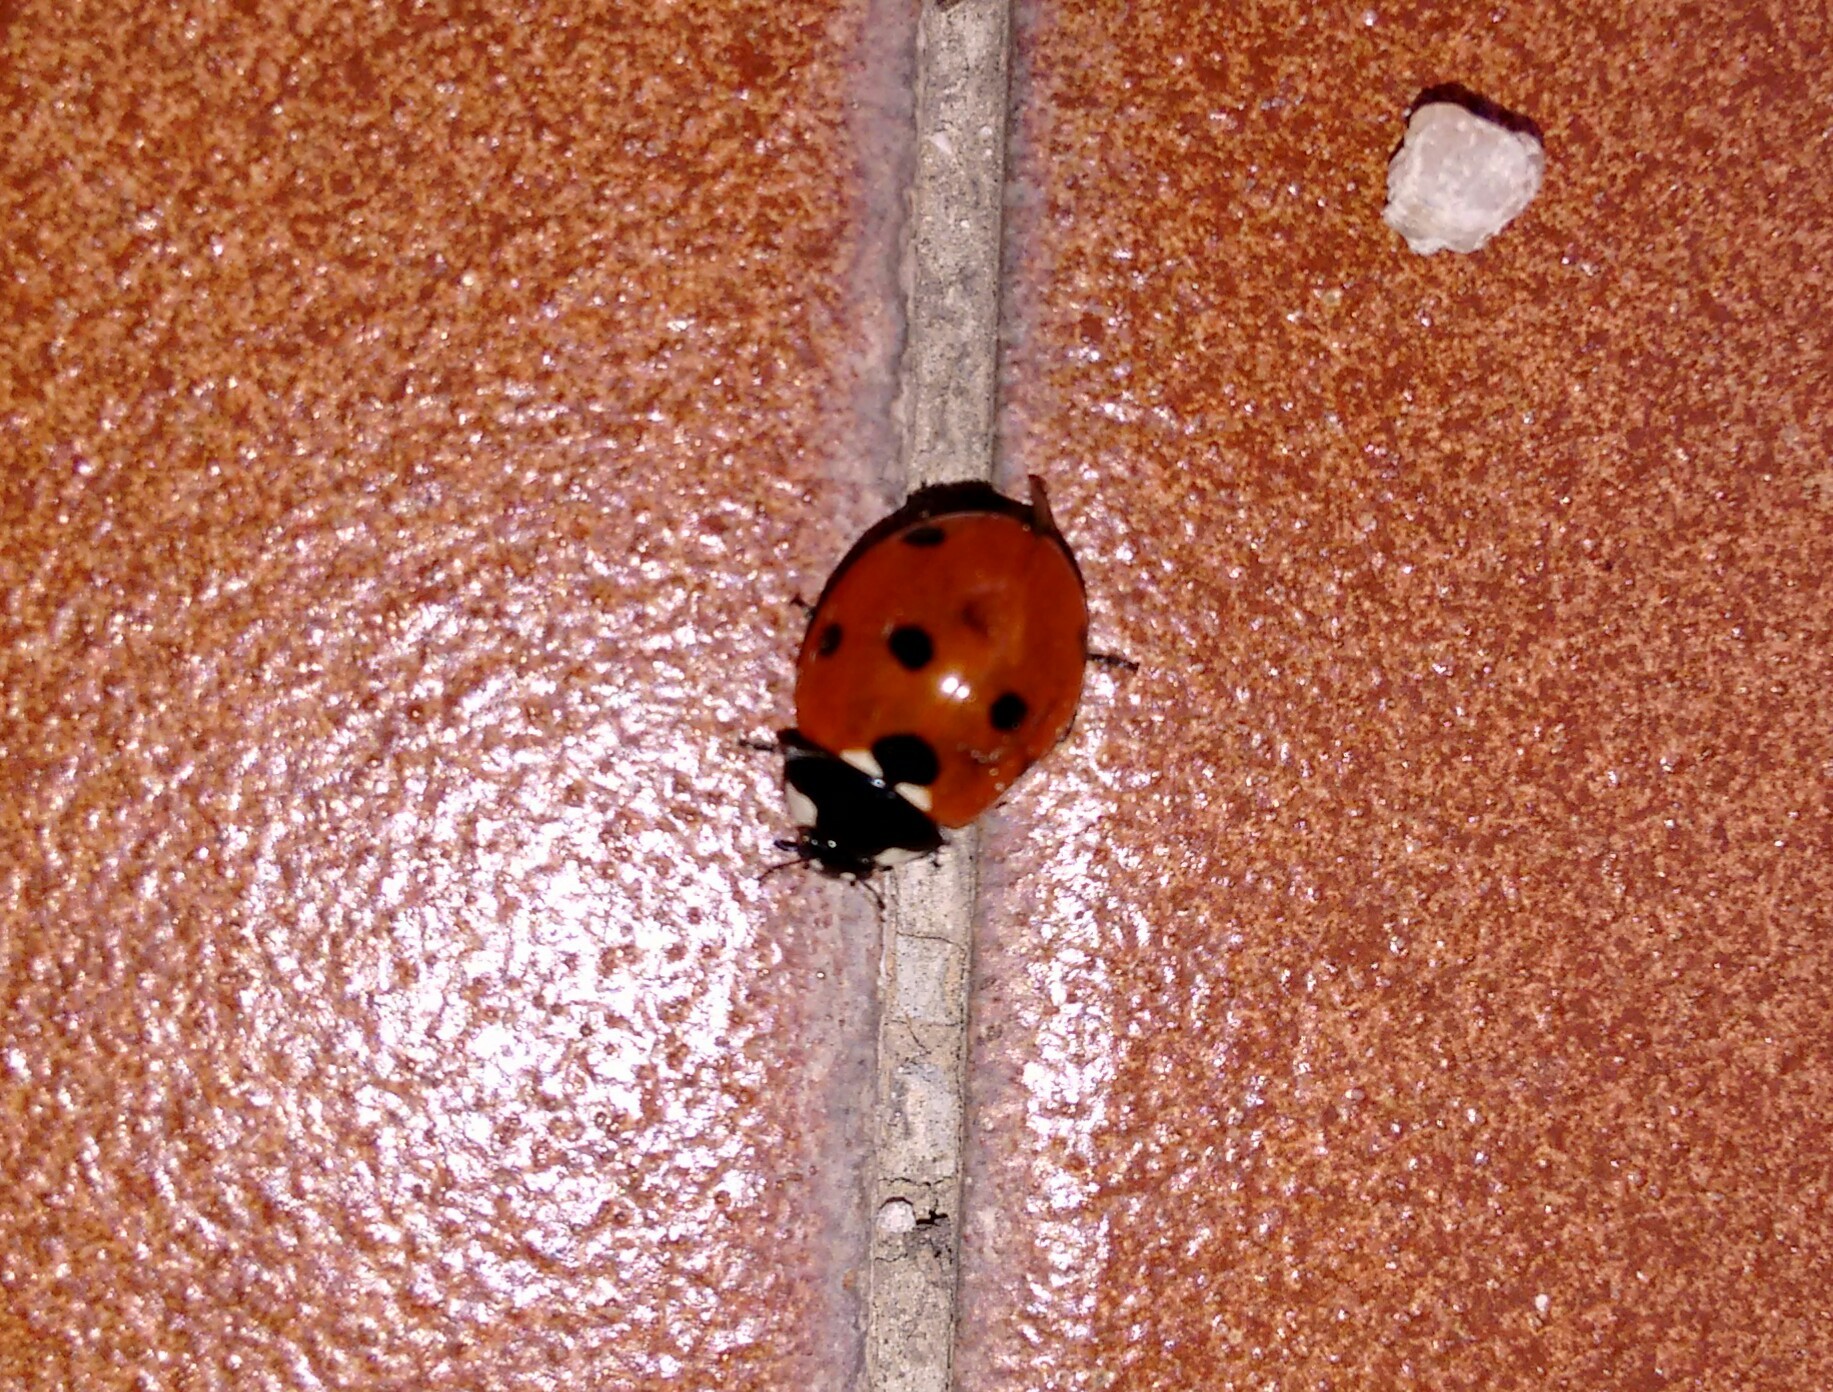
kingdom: Animalia
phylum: Arthropoda
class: Insecta
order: Coleoptera
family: Coccinellidae
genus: Coccinella
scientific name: Coccinella septempunctata
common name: Sevenspotted lady beetle
